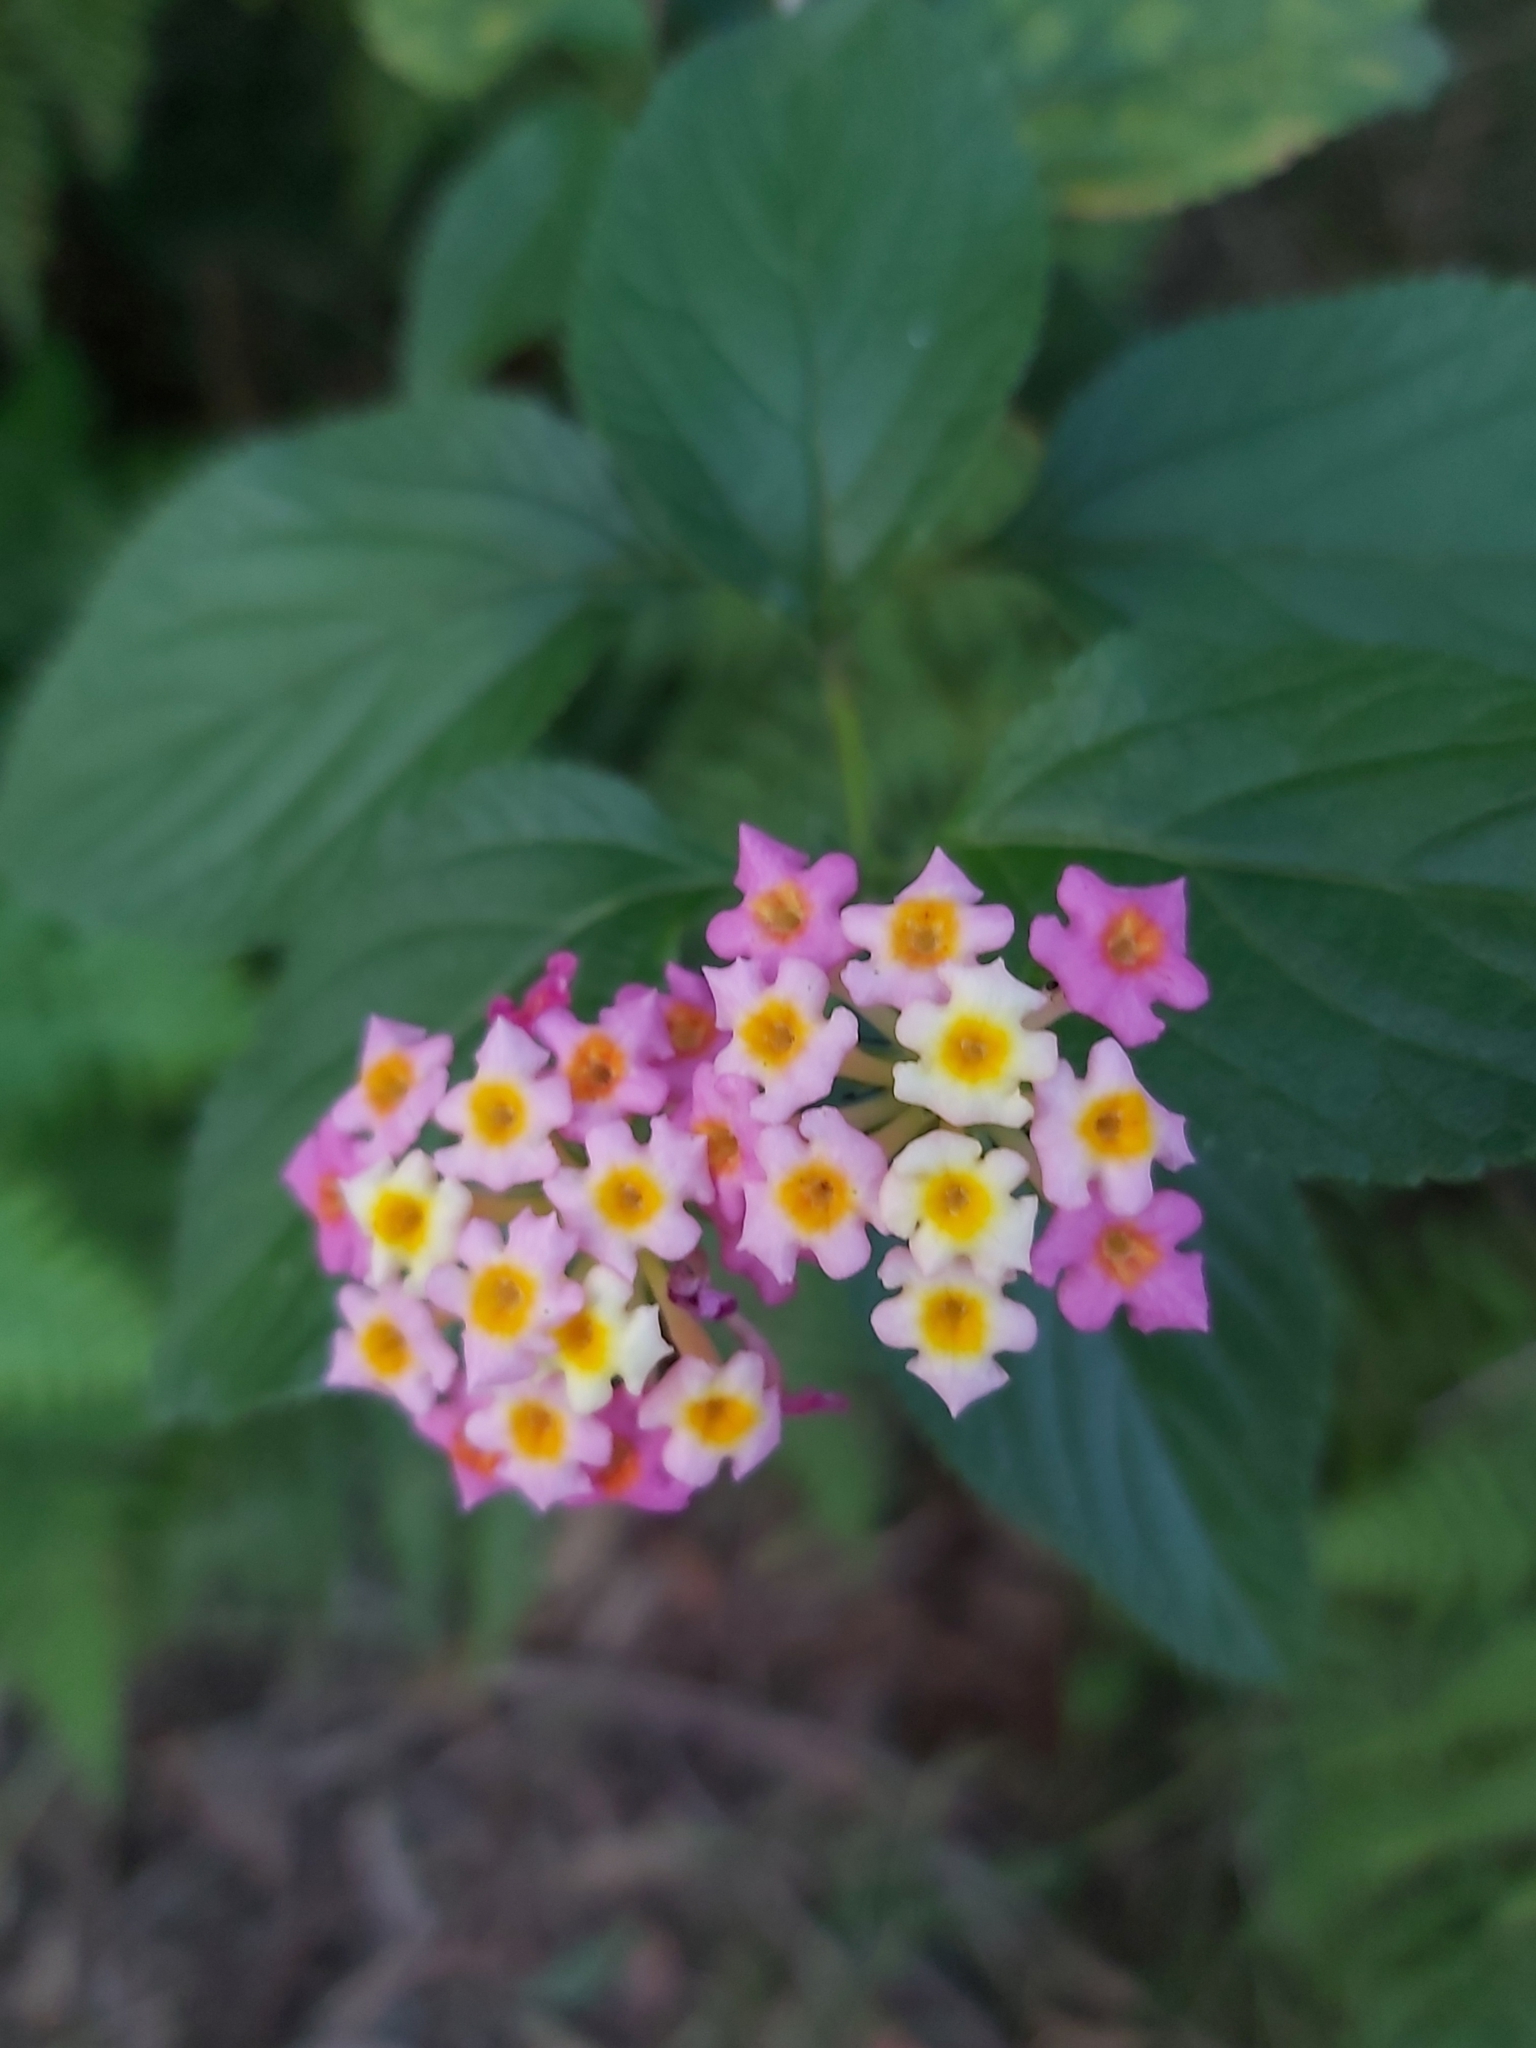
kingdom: Plantae
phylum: Tracheophyta
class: Magnoliopsida
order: Lamiales
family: Verbenaceae
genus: Lantana
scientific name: Lantana camara
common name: Lantana
